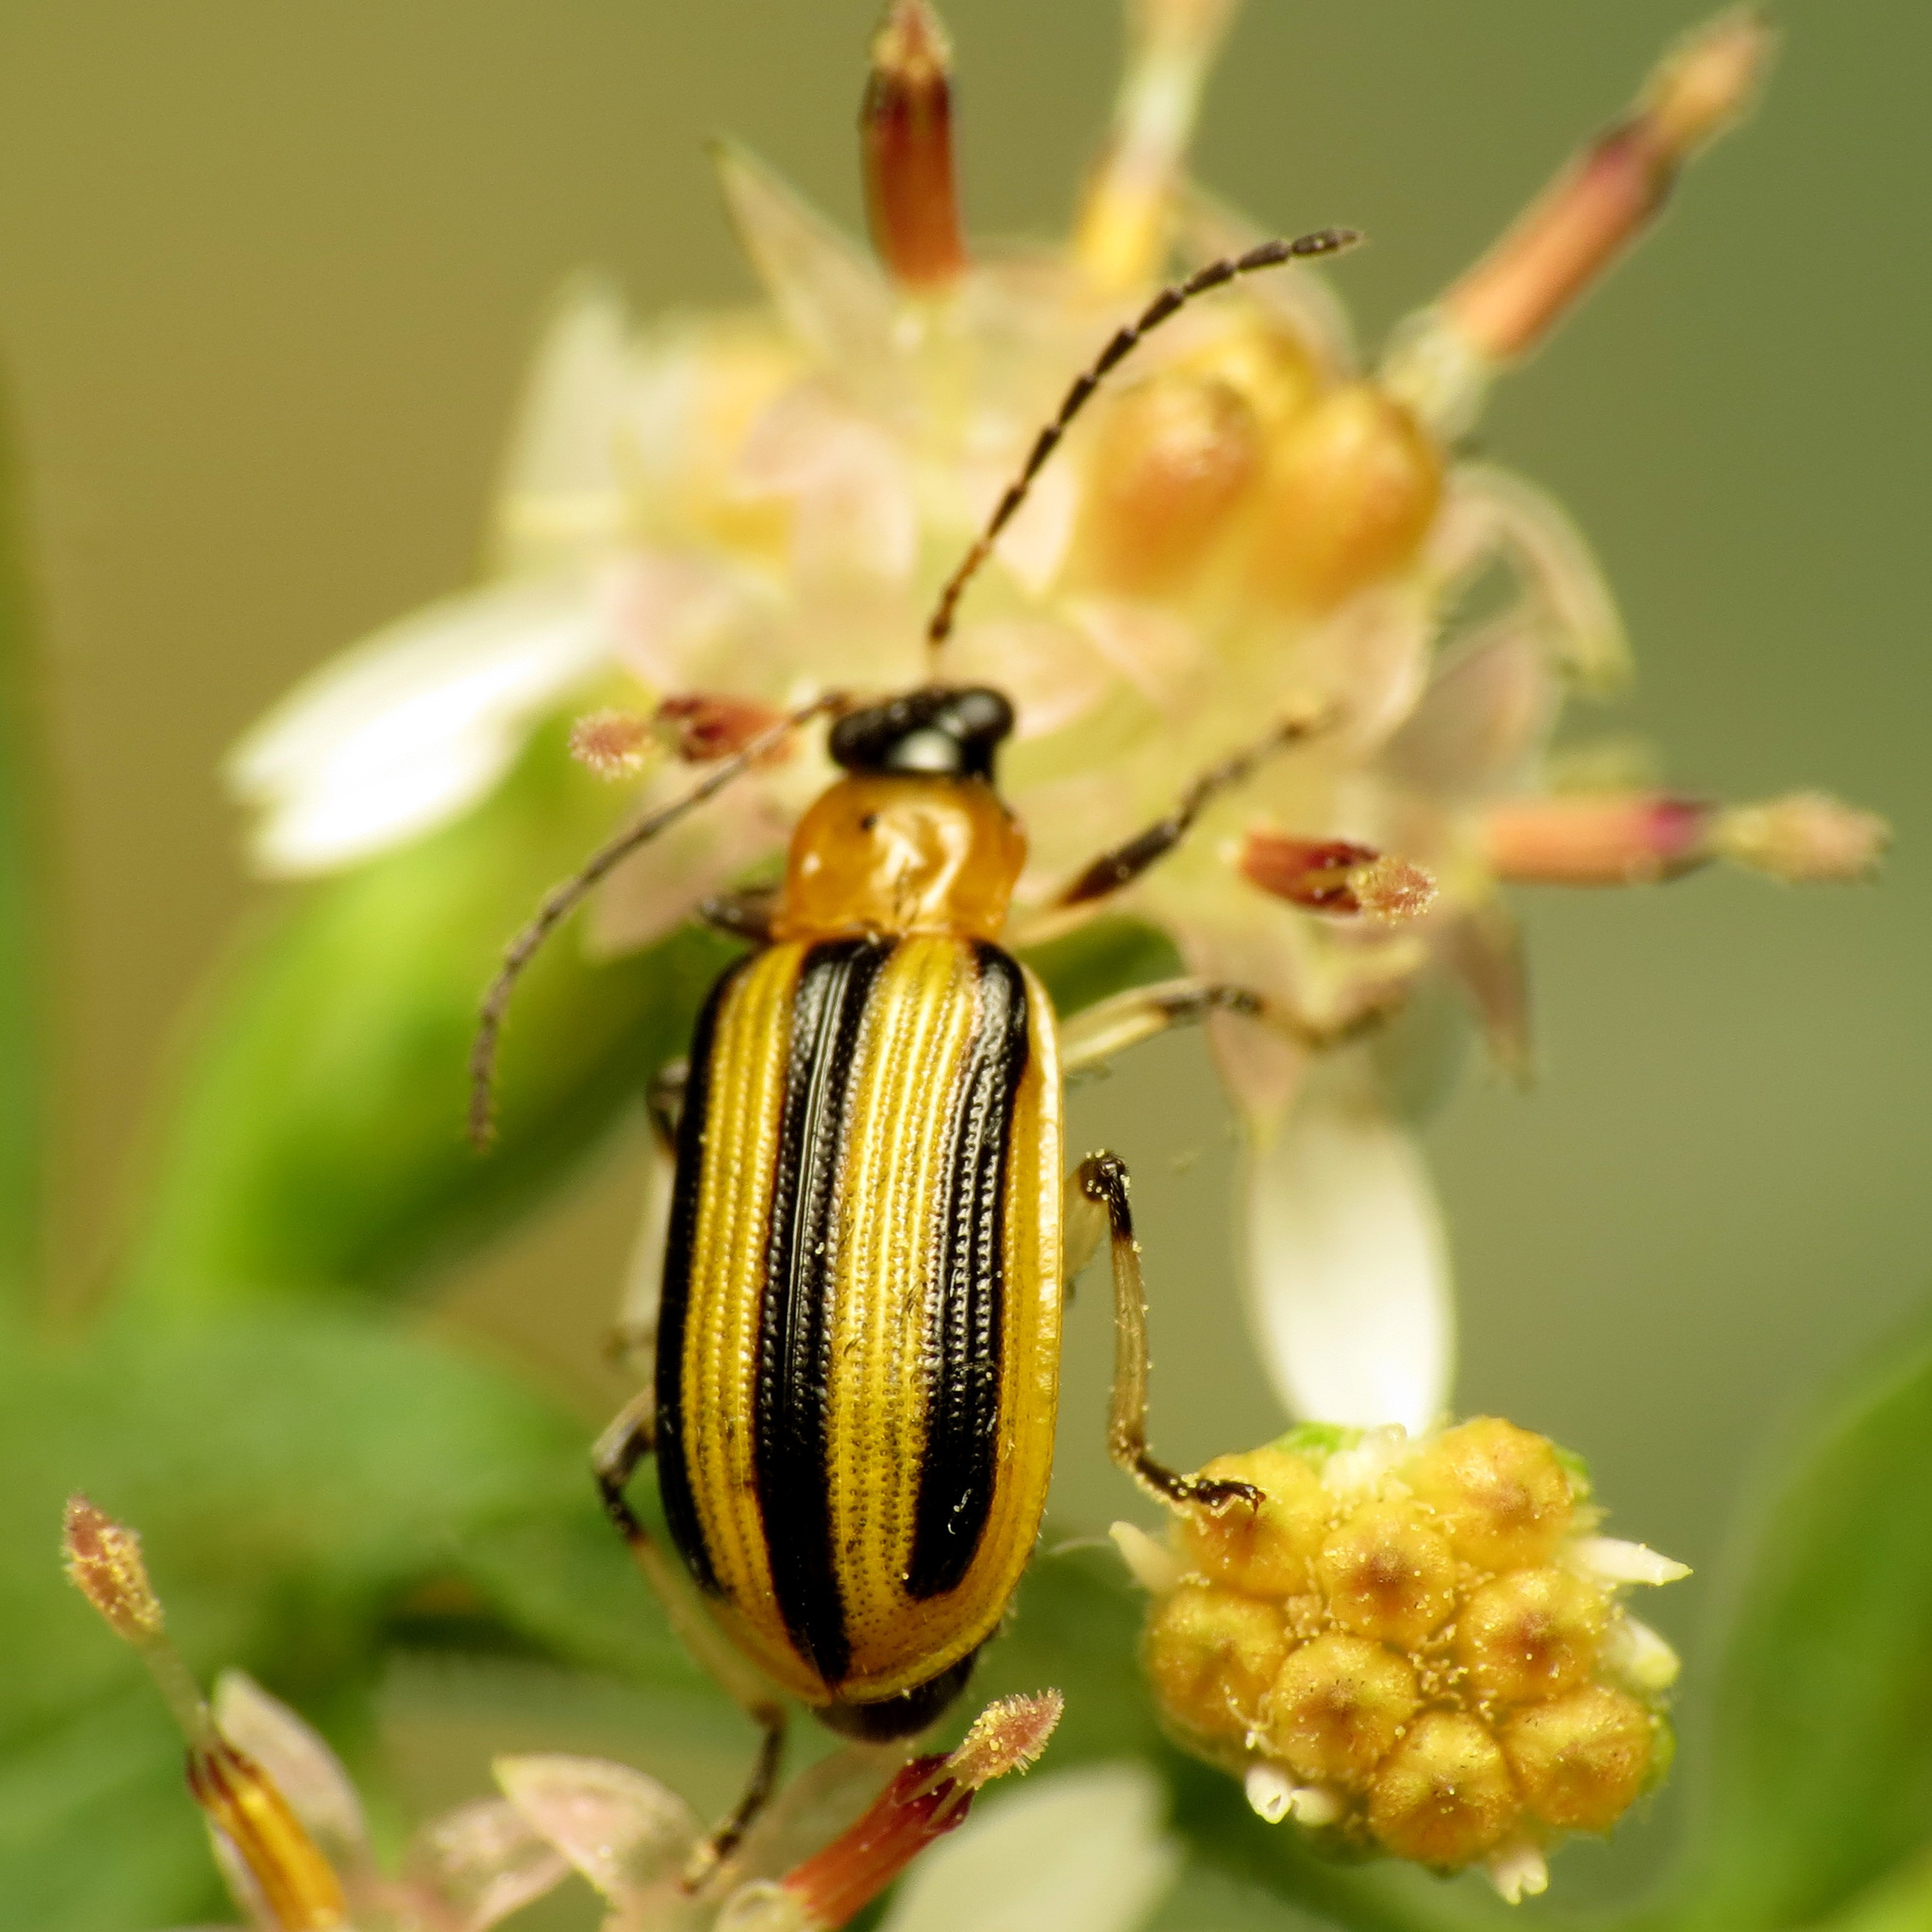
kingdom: Animalia
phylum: Arthropoda
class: Insecta
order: Coleoptera
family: Chrysomelidae
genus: Acalymma
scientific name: Acalymma vittatum
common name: Striped cucumber beetle
